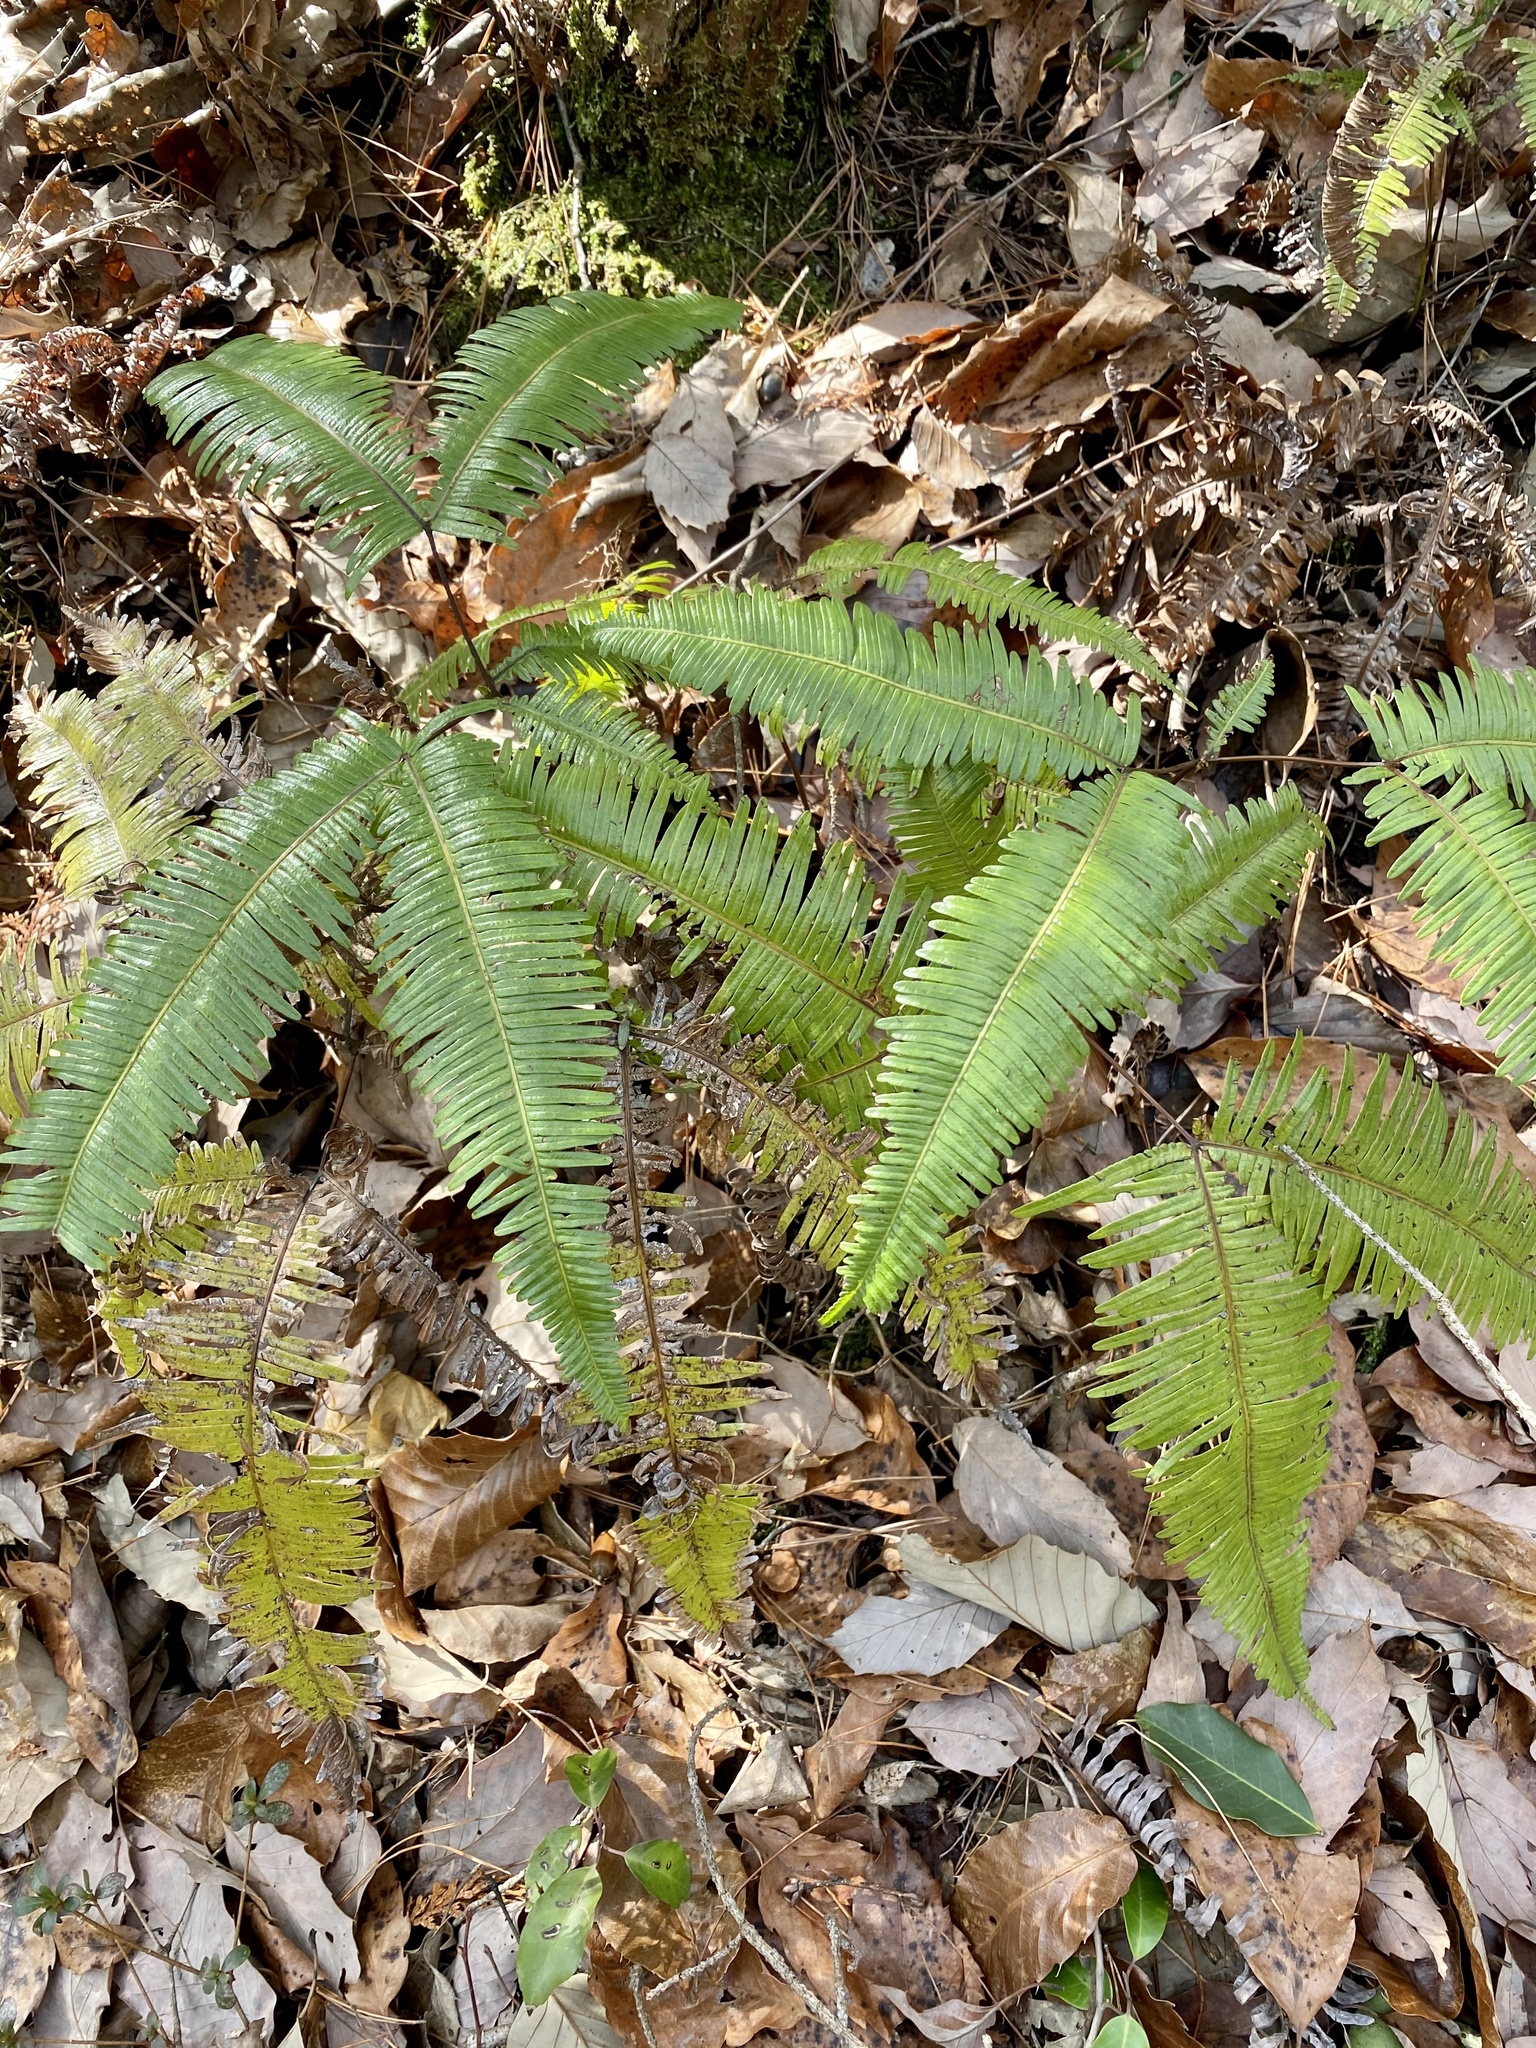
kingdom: Plantae
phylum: Tracheophyta
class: Polypodiopsida
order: Gleicheniales
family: Gleicheniaceae
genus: Dicranopteris
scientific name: Dicranopteris linearis
